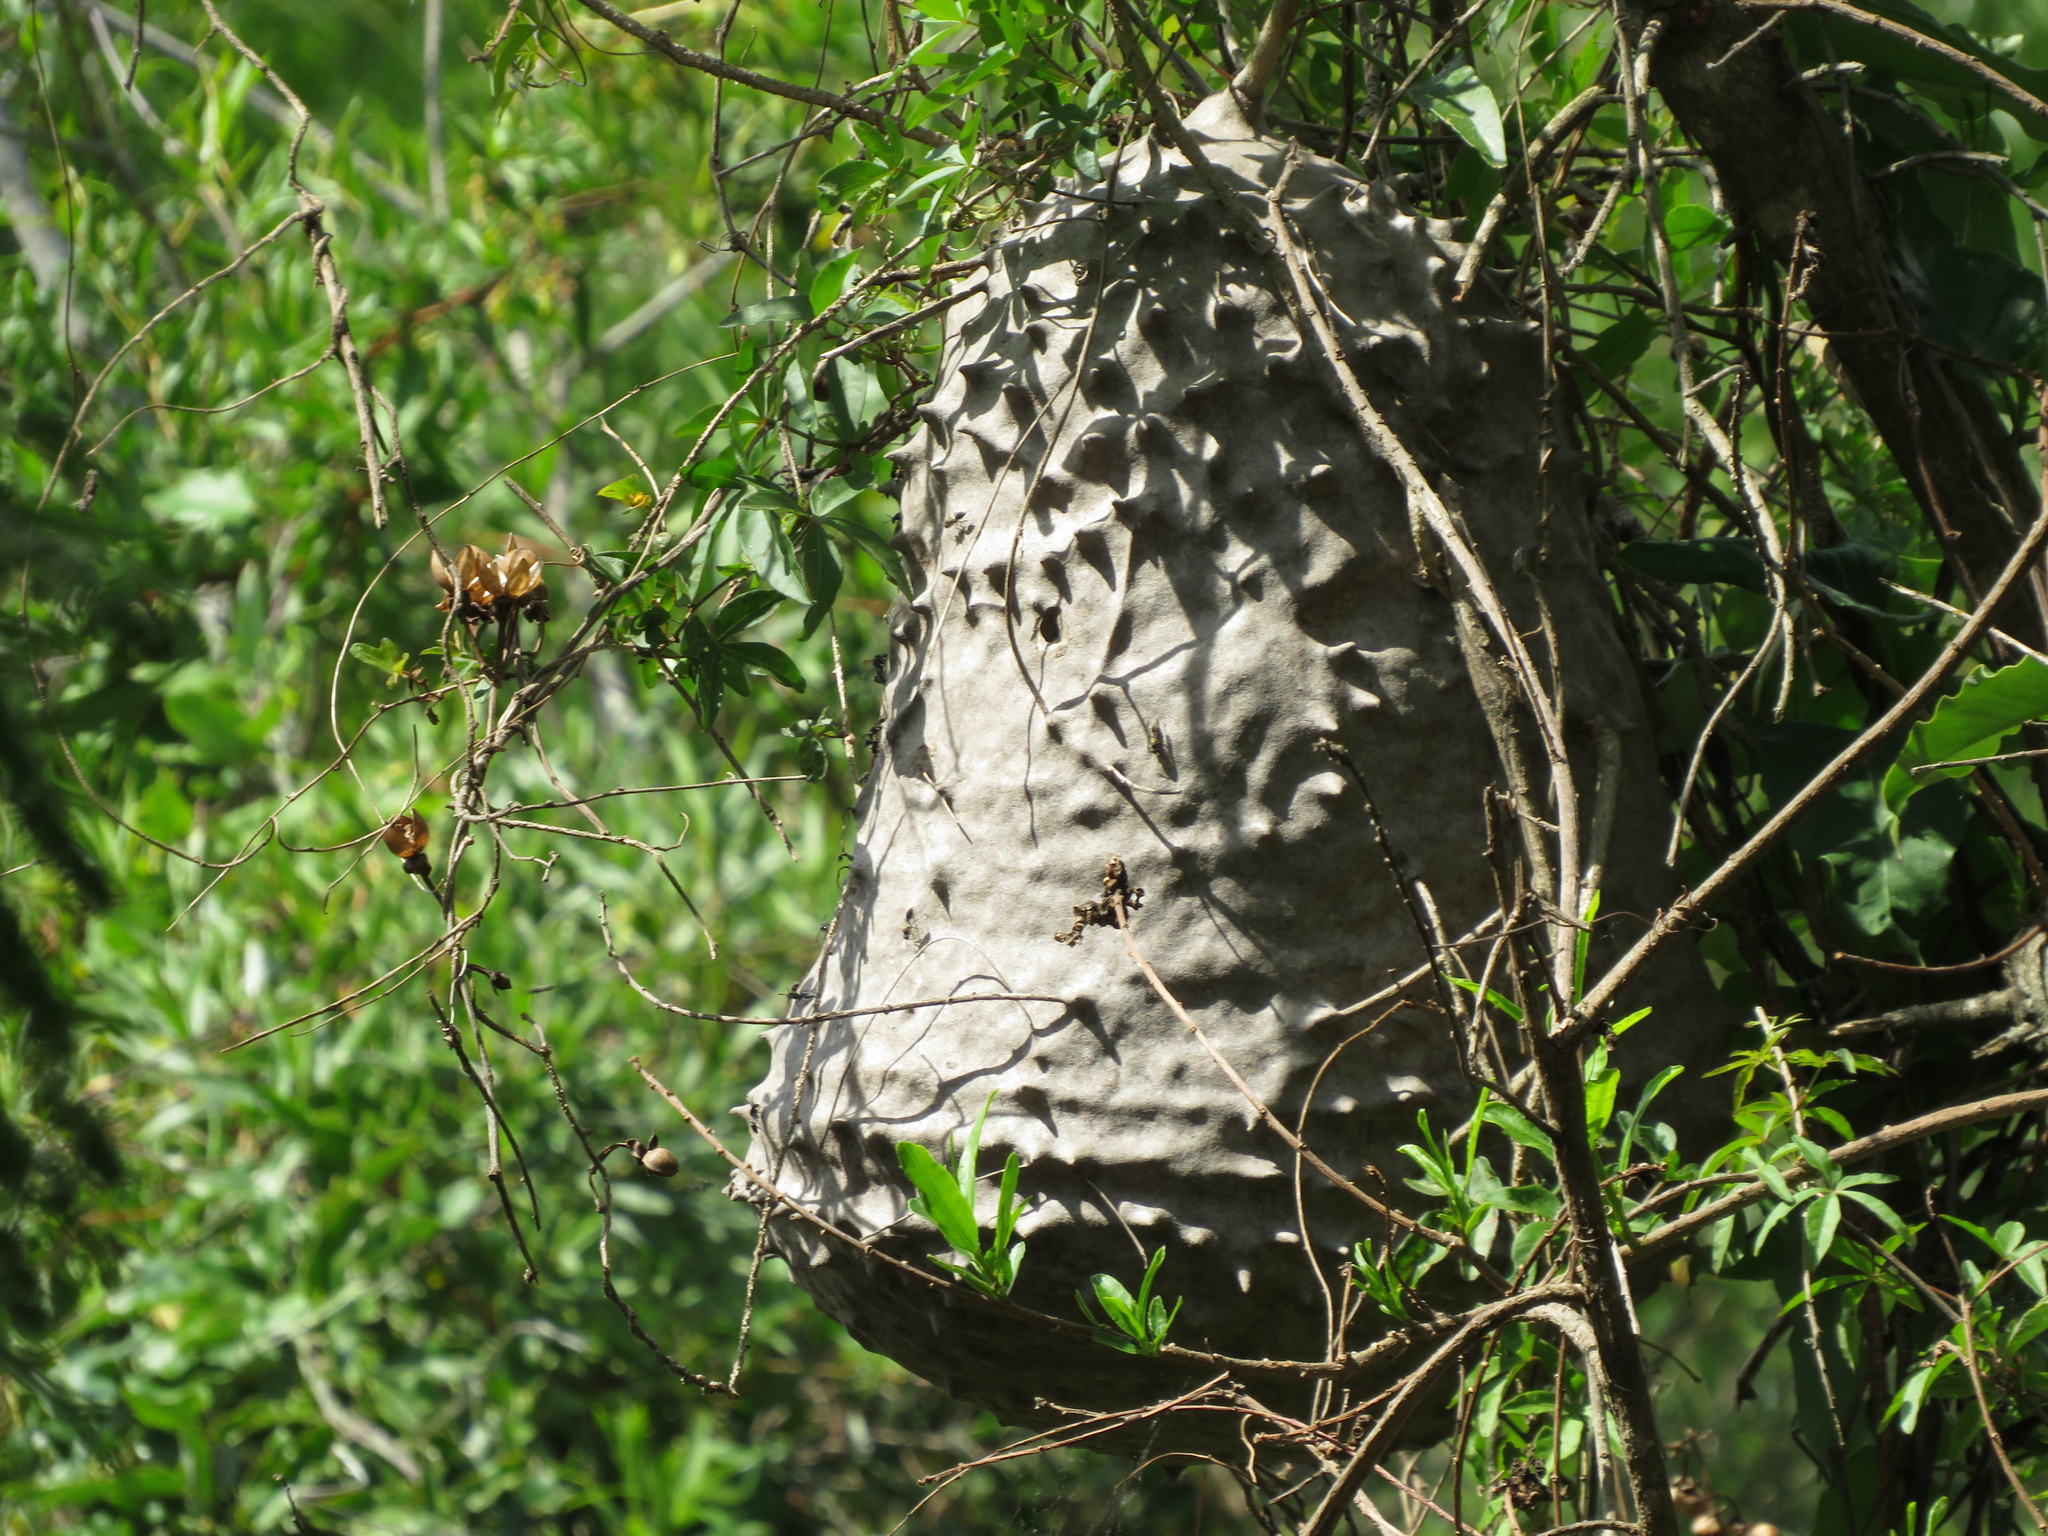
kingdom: Animalia
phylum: Arthropoda
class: Insecta
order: Hymenoptera
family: Eumenidae
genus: Polybia
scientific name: Polybia scutellaris
